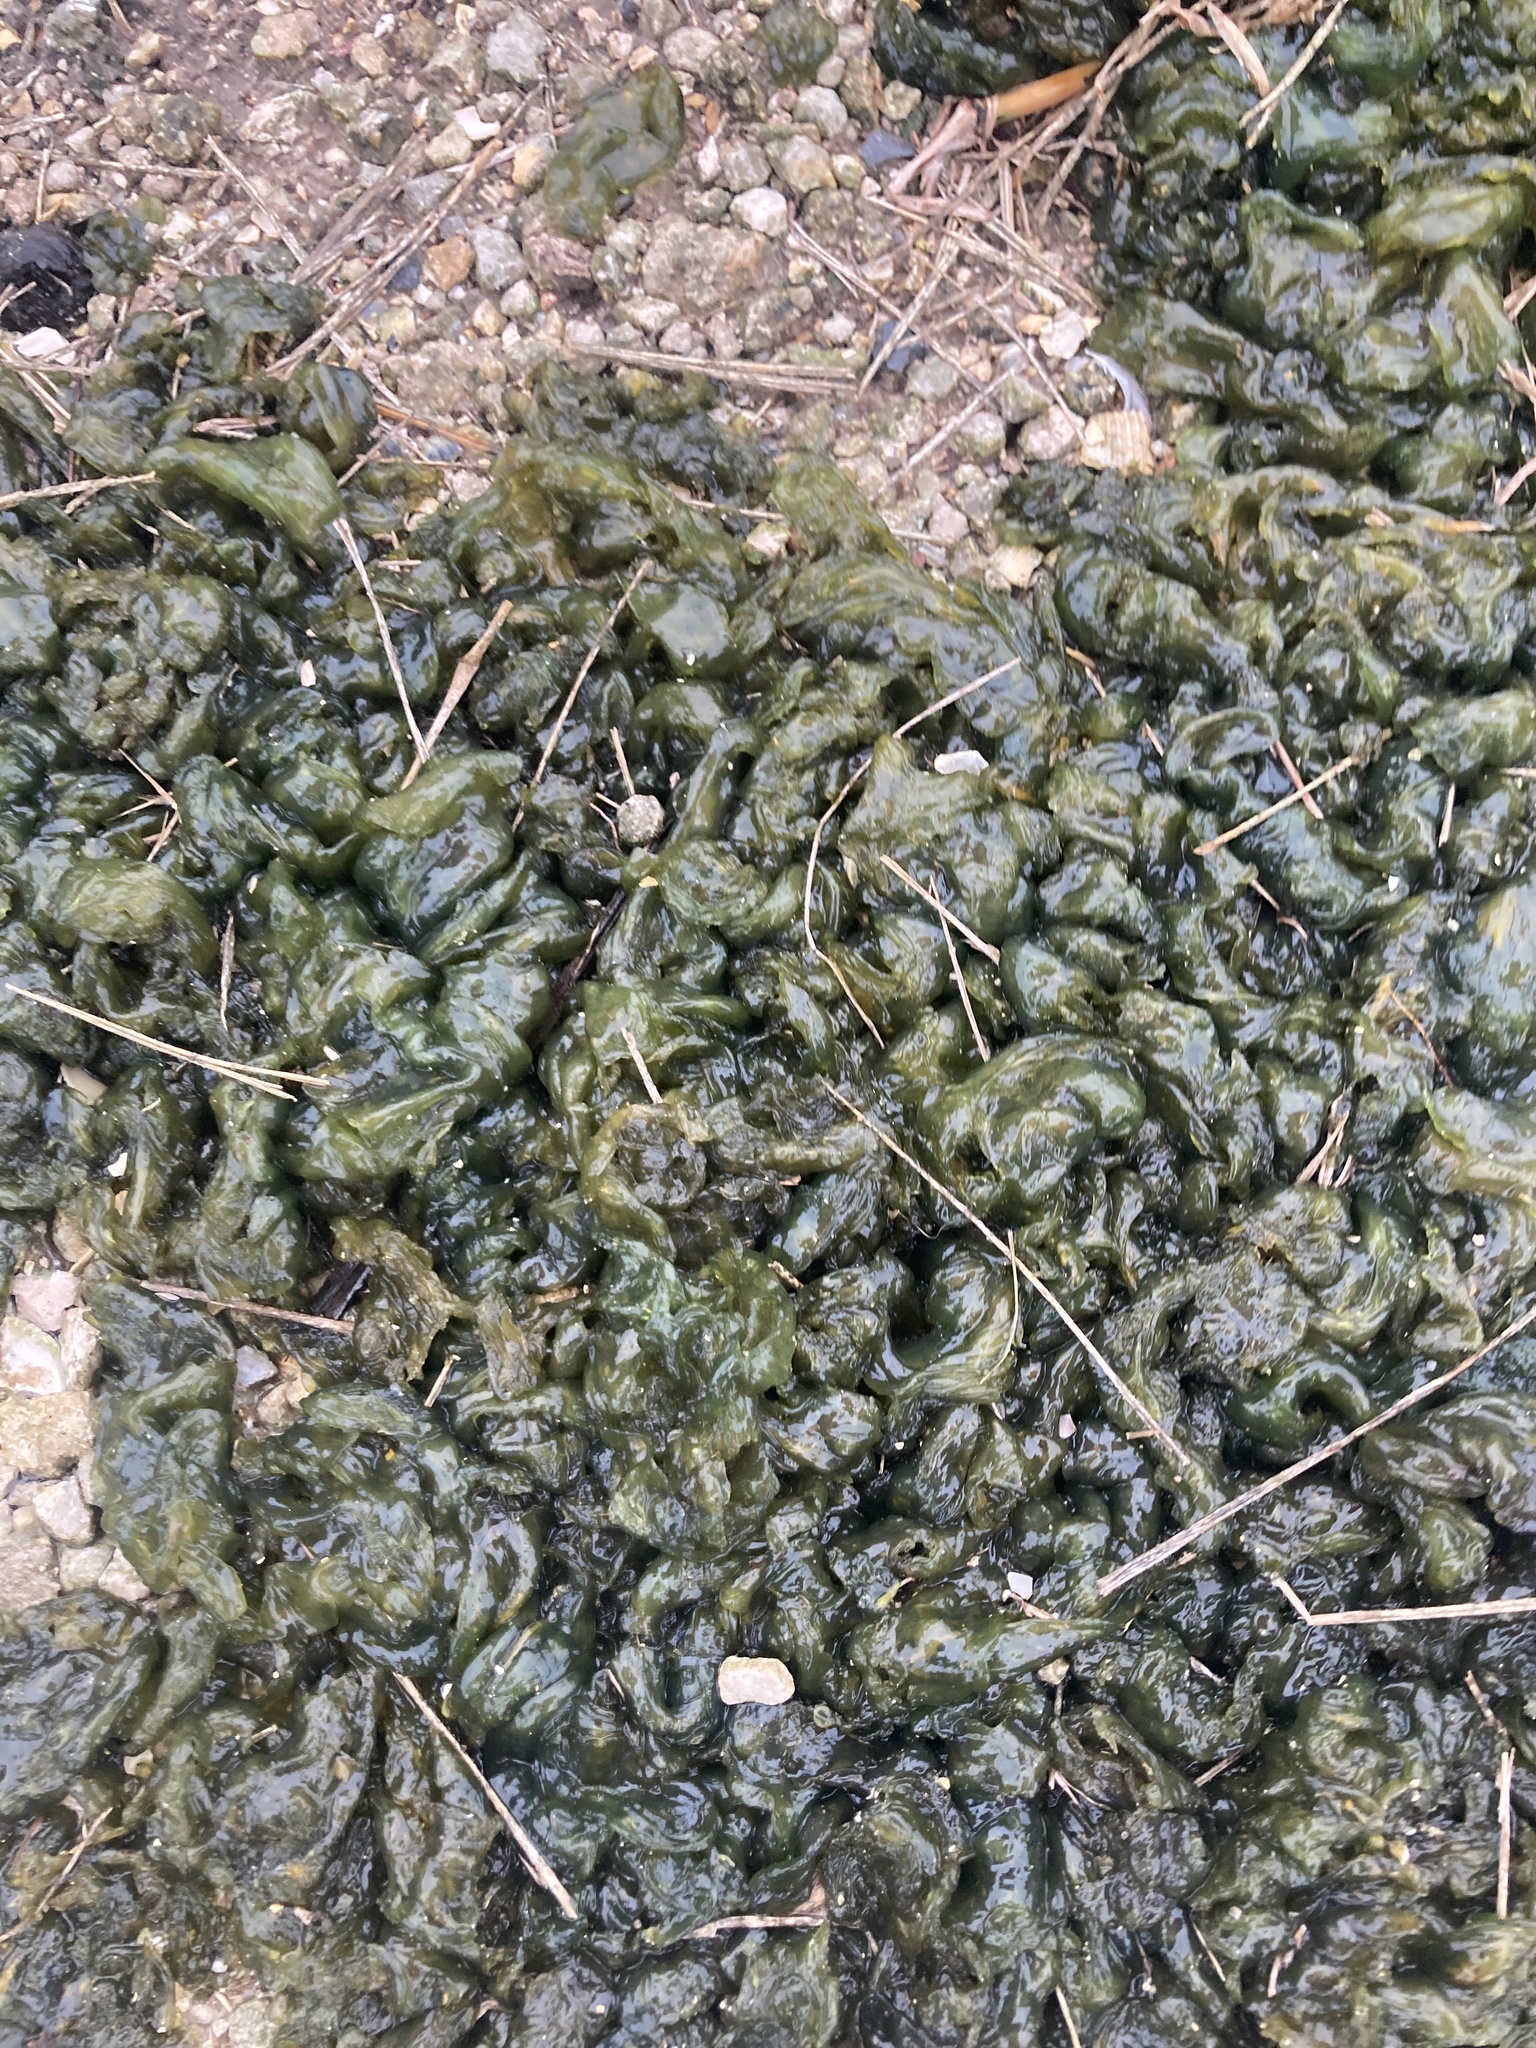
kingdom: Bacteria
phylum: Cyanobacteria
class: Cyanobacteriia
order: Cyanobacteriales
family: Nostocaceae
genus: Nostoc
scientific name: Nostoc commune
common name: Star jelly
